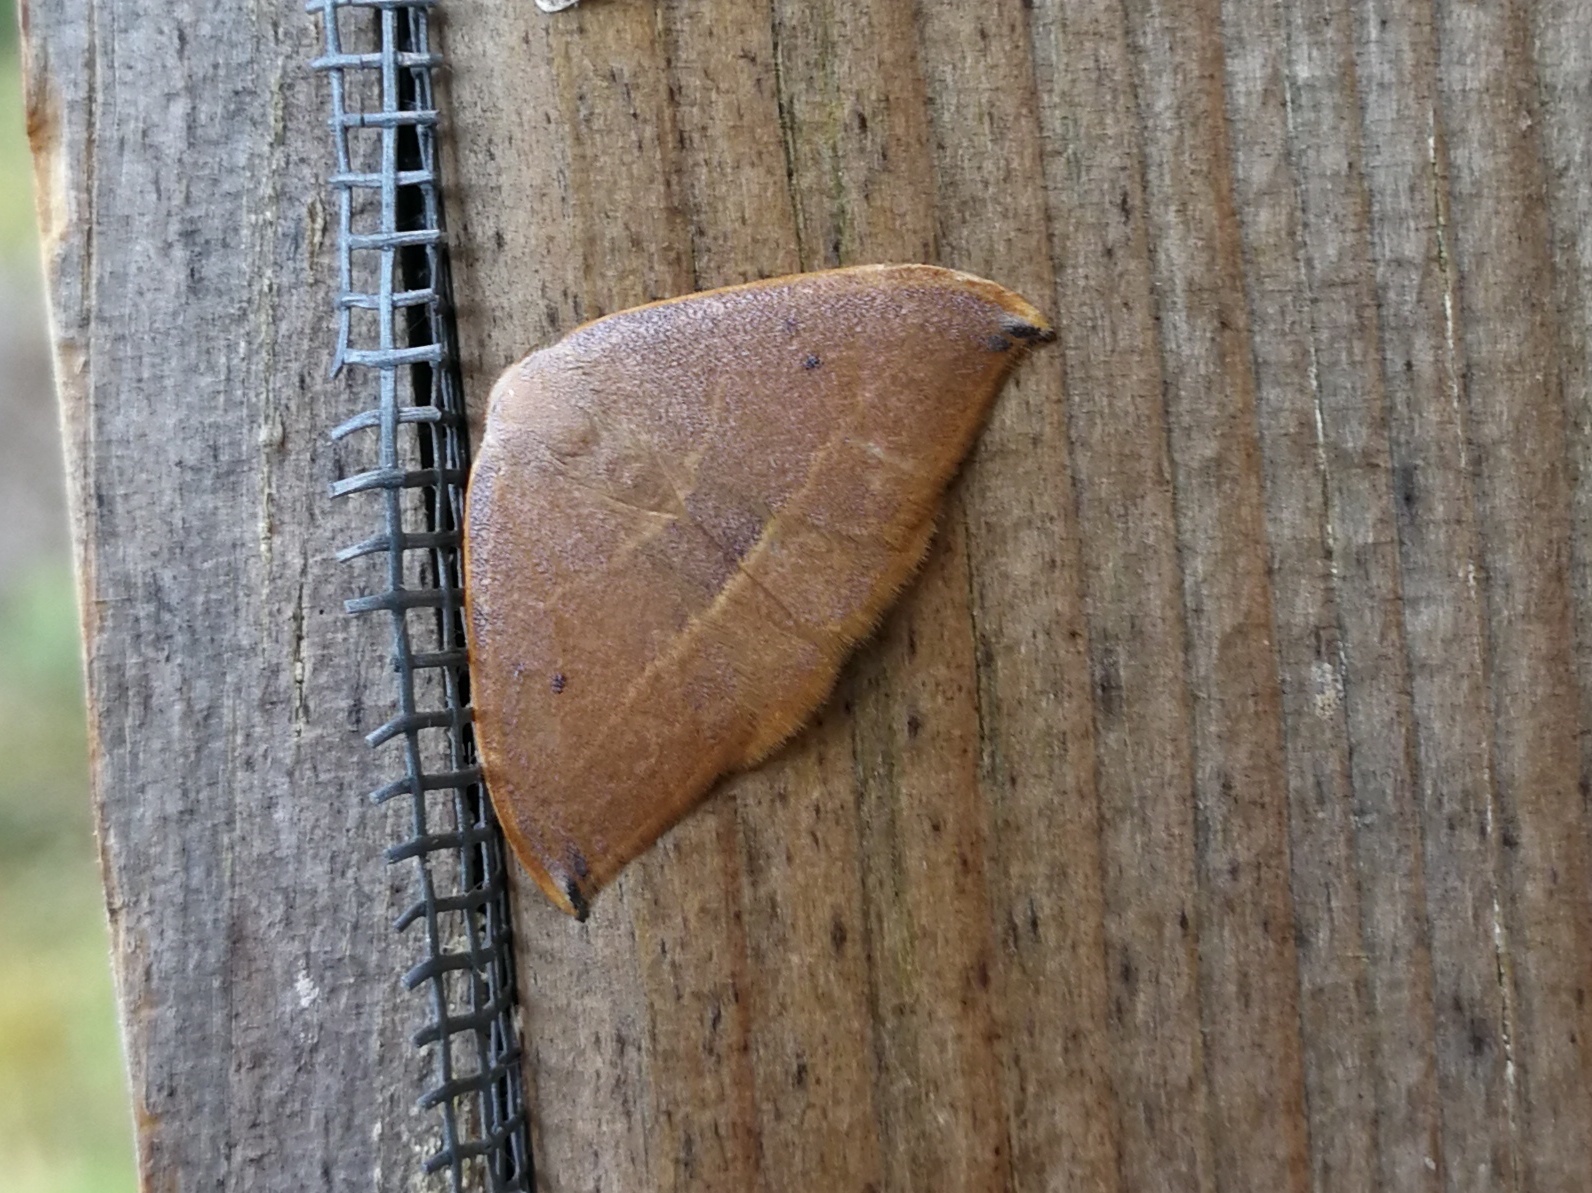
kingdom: Animalia
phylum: Arthropoda
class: Insecta
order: Lepidoptera
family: Drepanidae
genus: Watsonalla
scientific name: Watsonalla uncinula
